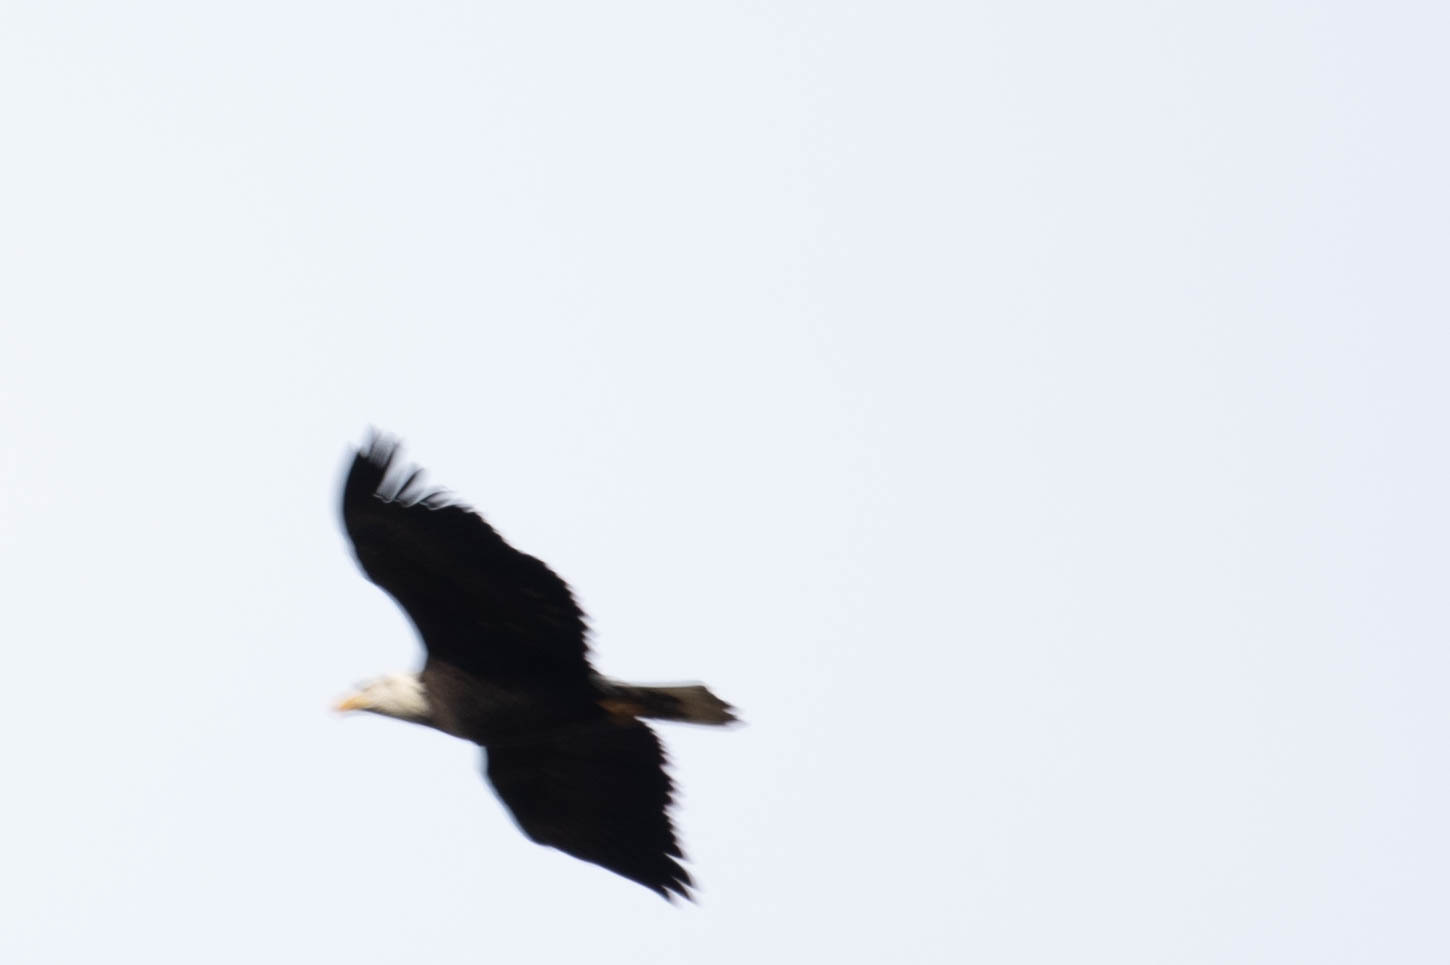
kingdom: Animalia
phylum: Chordata
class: Aves
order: Accipitriformes
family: Accipitridae
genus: Haliaeetus
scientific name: Haliaeetus leucocephalus
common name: Bald eagle
